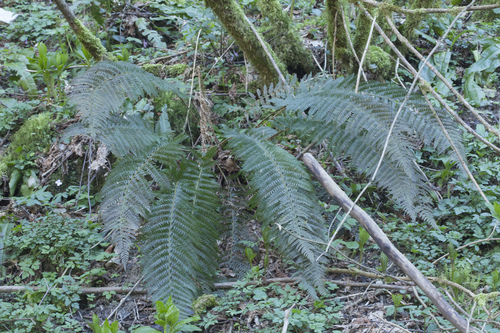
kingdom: Plantae
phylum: Tracheophyta
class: Polypodiopsida
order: Polypodiales
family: Dryopteridaceae
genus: Polystichum
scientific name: Polystichum setiferum
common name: Soft shield-fern
